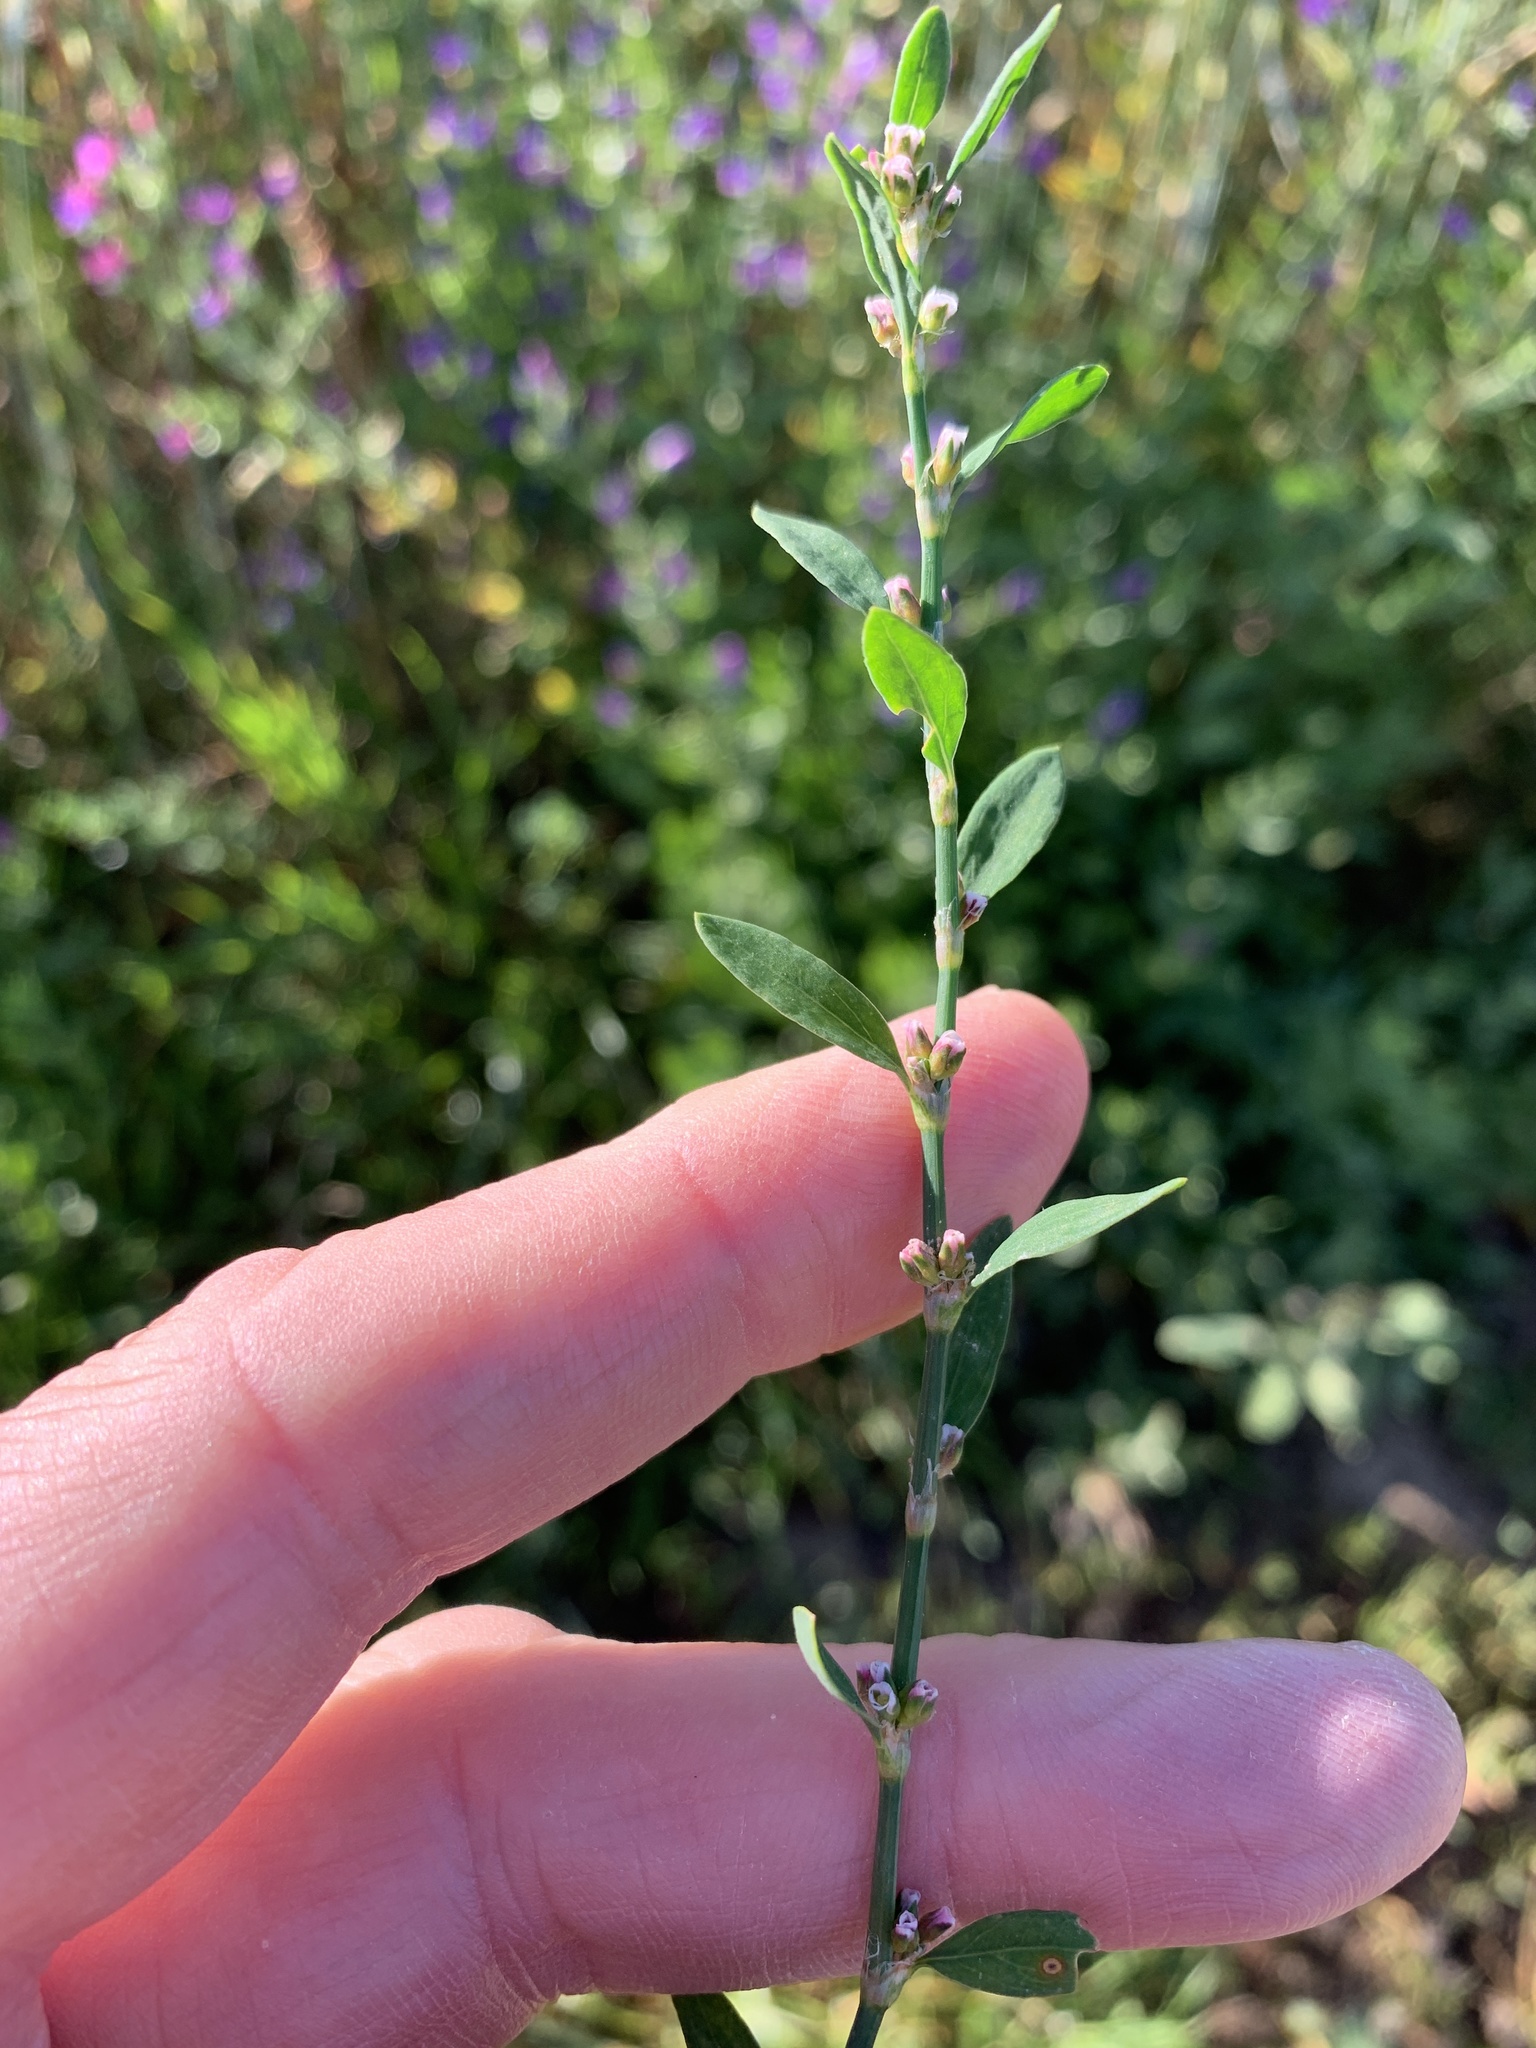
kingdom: Plantae
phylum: Tracheophyta
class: Magnoliopsida
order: Caryophyllales
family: Polygonaceae
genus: Polygonum
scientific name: Polygonum aviculare
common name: Prostrate knotweed
